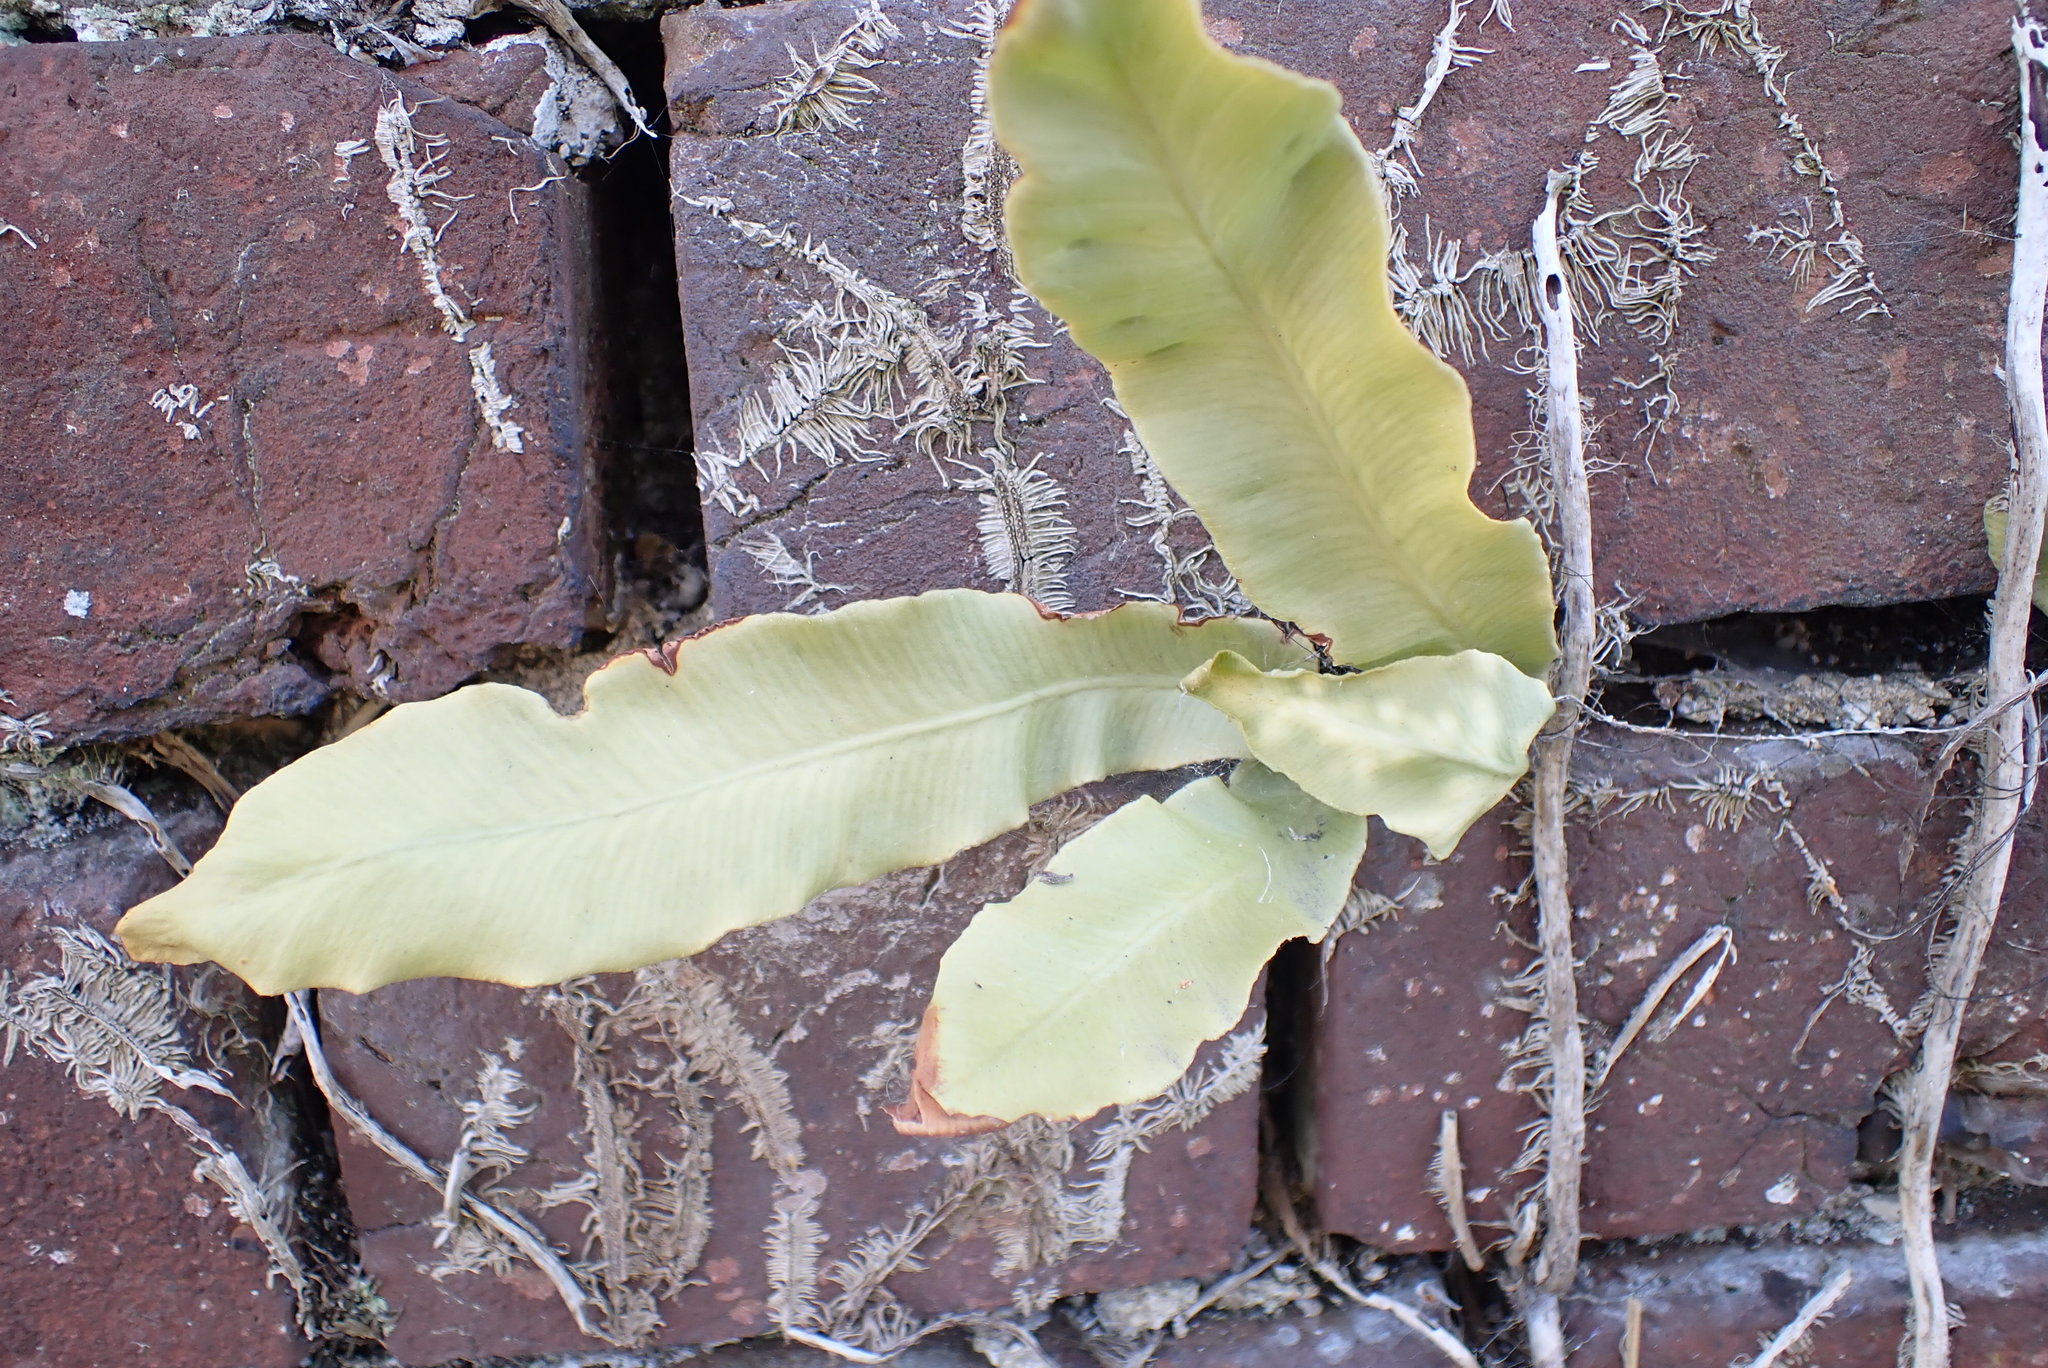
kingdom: Plantae
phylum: Tracheophyta
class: Polypodiopsida
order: Polypodiales
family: Aspleniaceae
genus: Asplenium
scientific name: Asplenium scolopendrium
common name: Hart's-tongue fern
